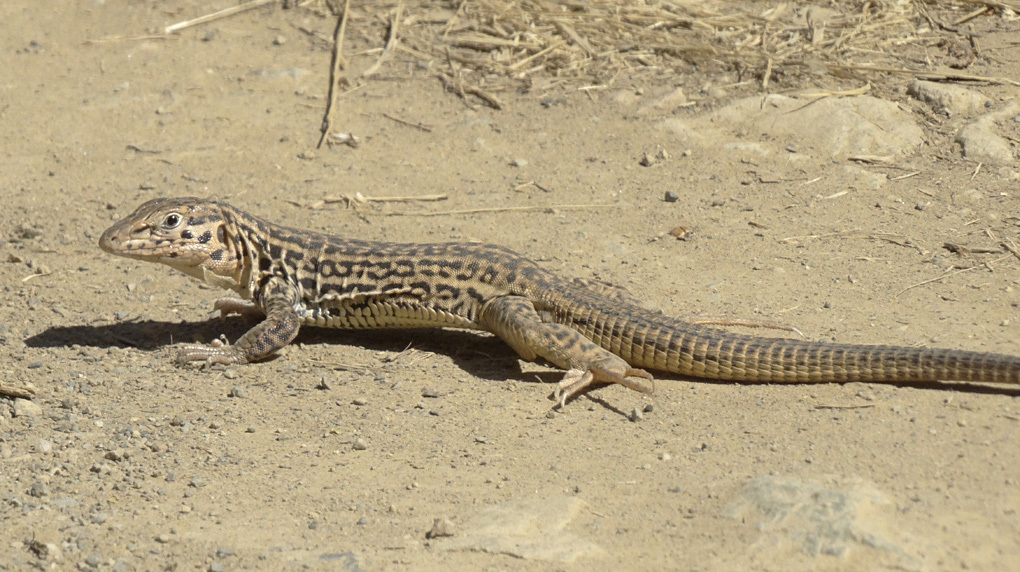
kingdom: Animalia
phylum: Chordata
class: Squamata
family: Teiidae
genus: Aspidoscelis
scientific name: Aspidoscelis tigris
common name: Tiger whiptail
